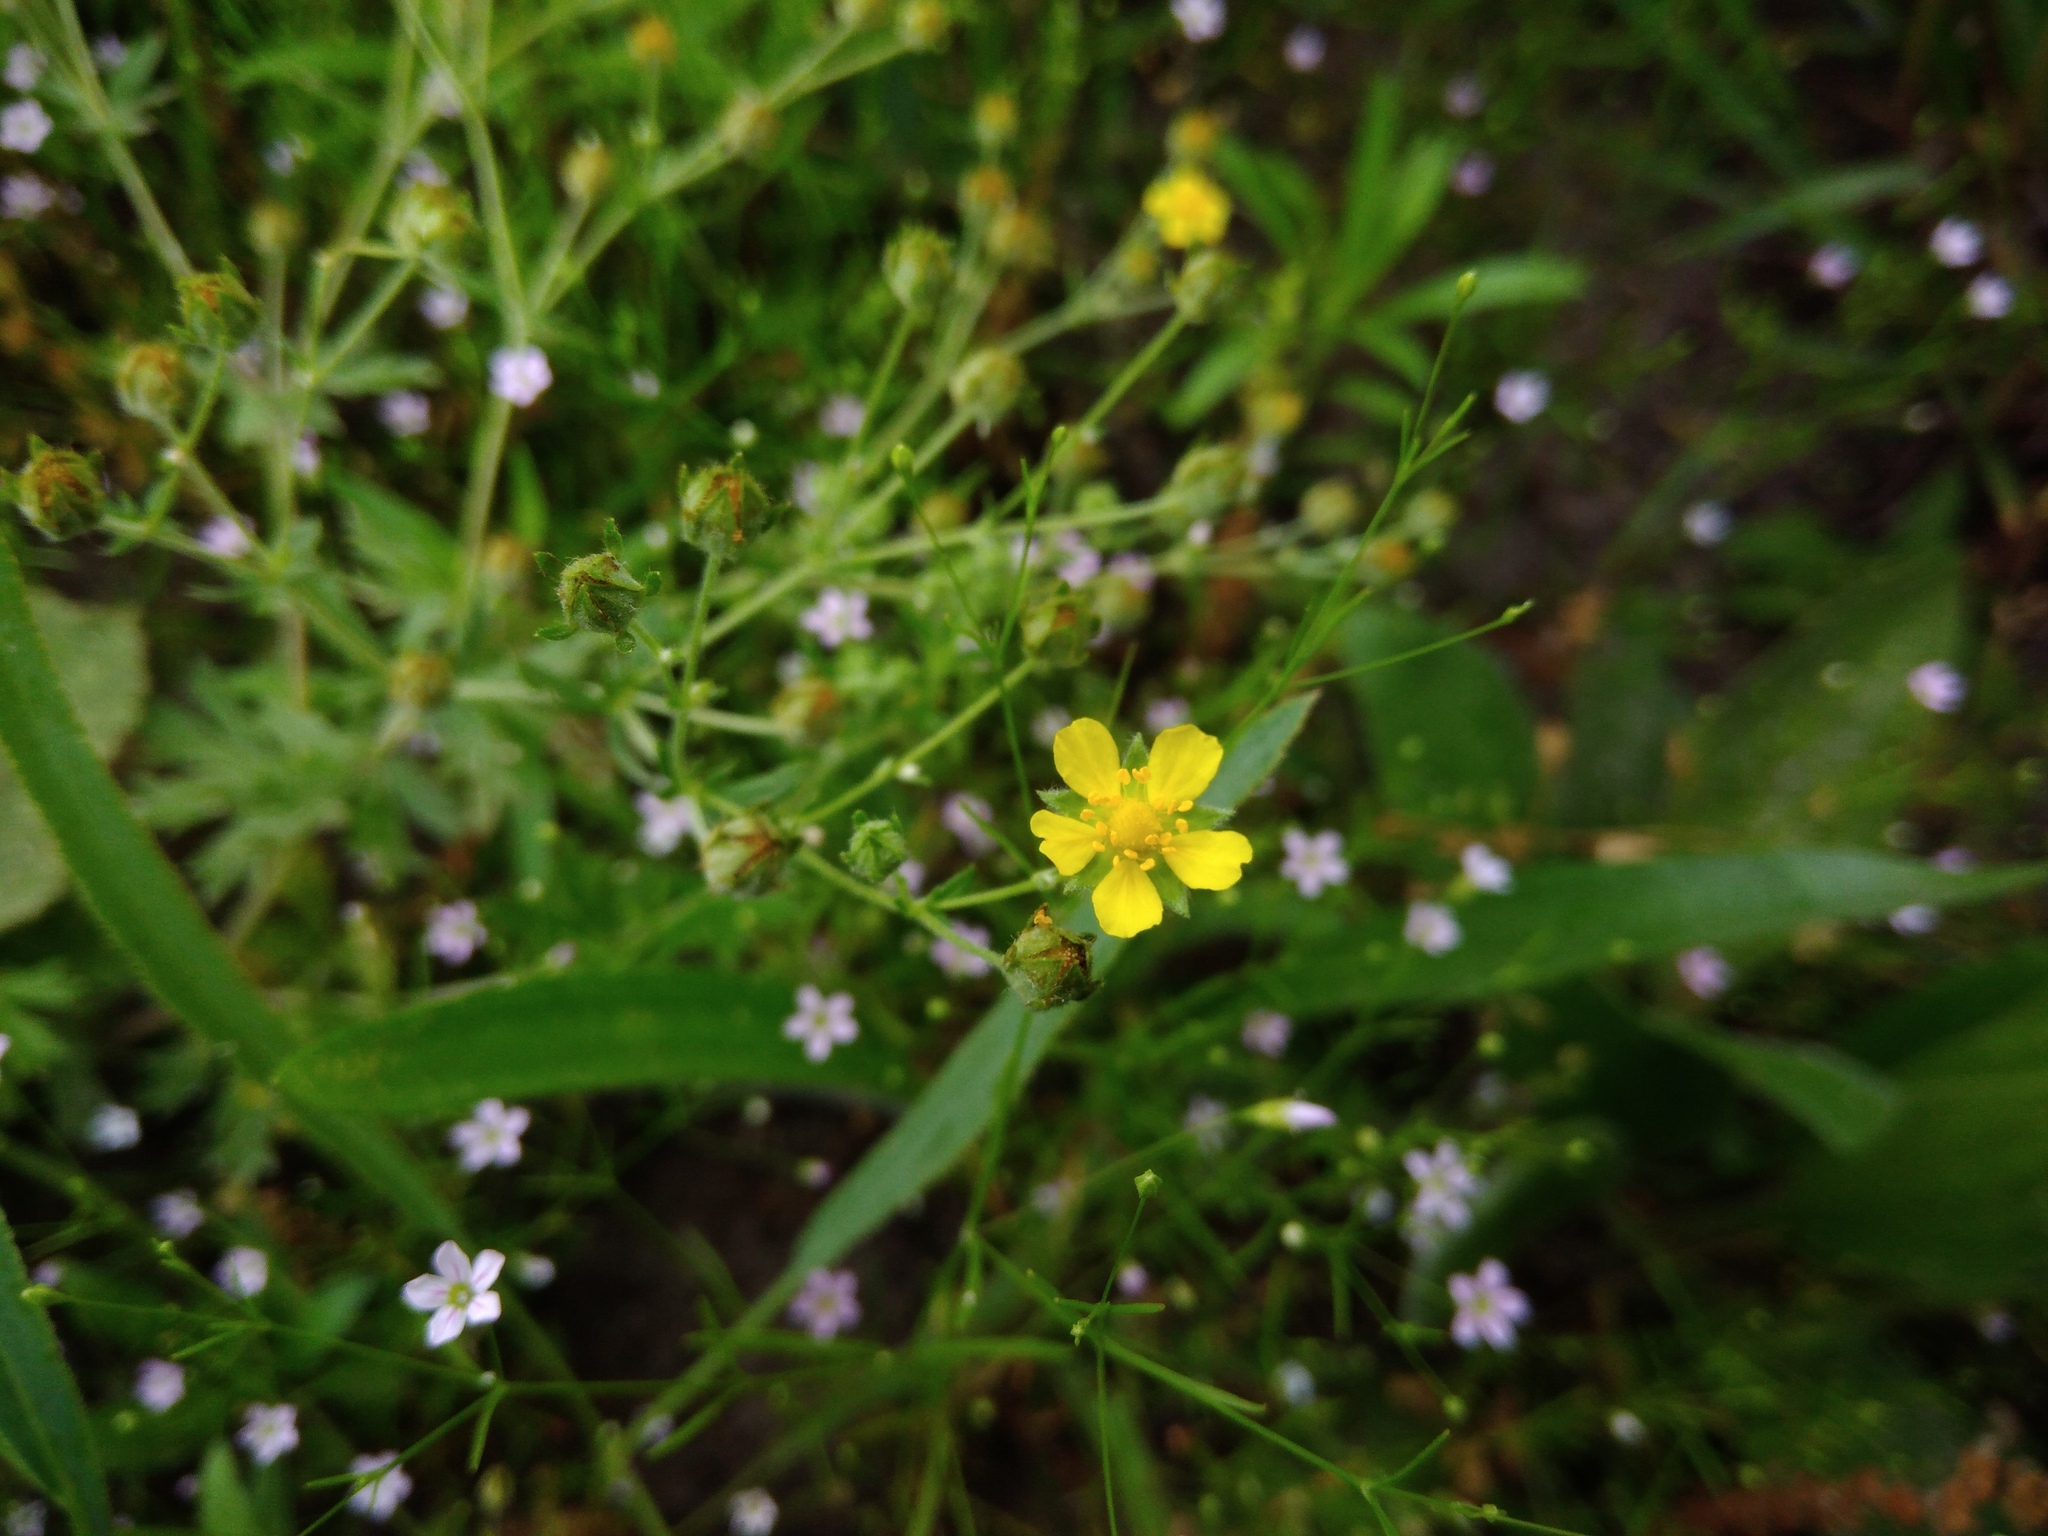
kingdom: Plantae
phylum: Tracheophyta
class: Magnoliopsida
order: Rosales
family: Rosaceae
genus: Potentilla
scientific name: Potentilla argentea
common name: Hoary cinquefoil
